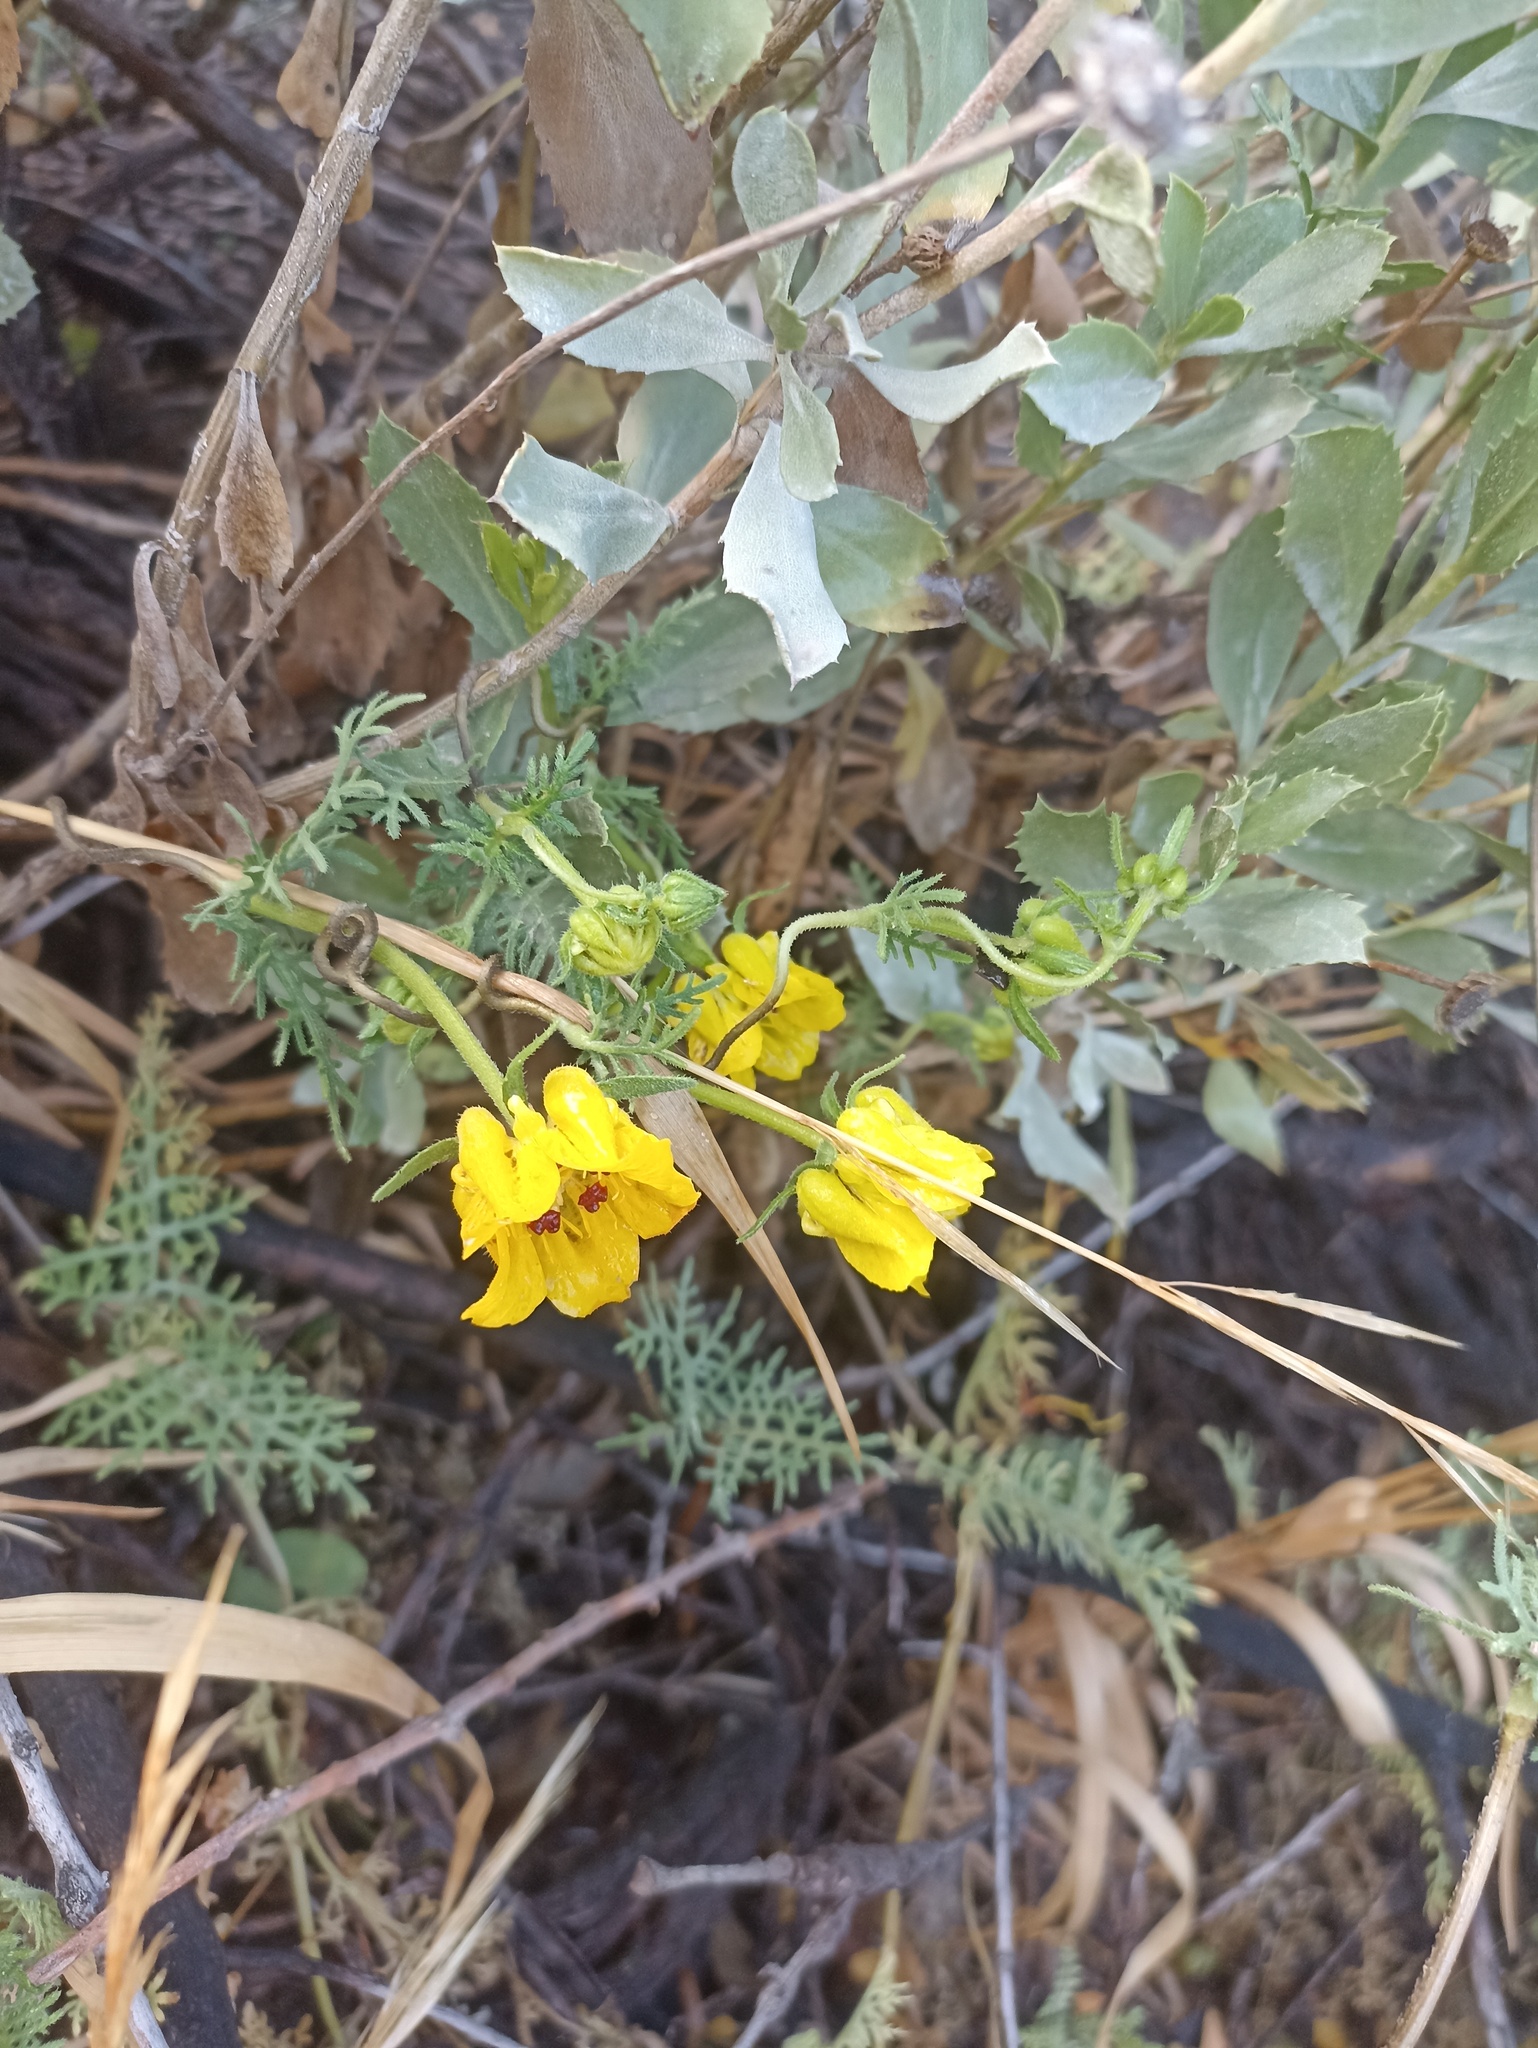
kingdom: Plantae
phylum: Tracheophyta
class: Magnoliopsida
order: Cornales
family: Loasaceae
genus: Scyphanthus
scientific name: Scyphanthus elegans
